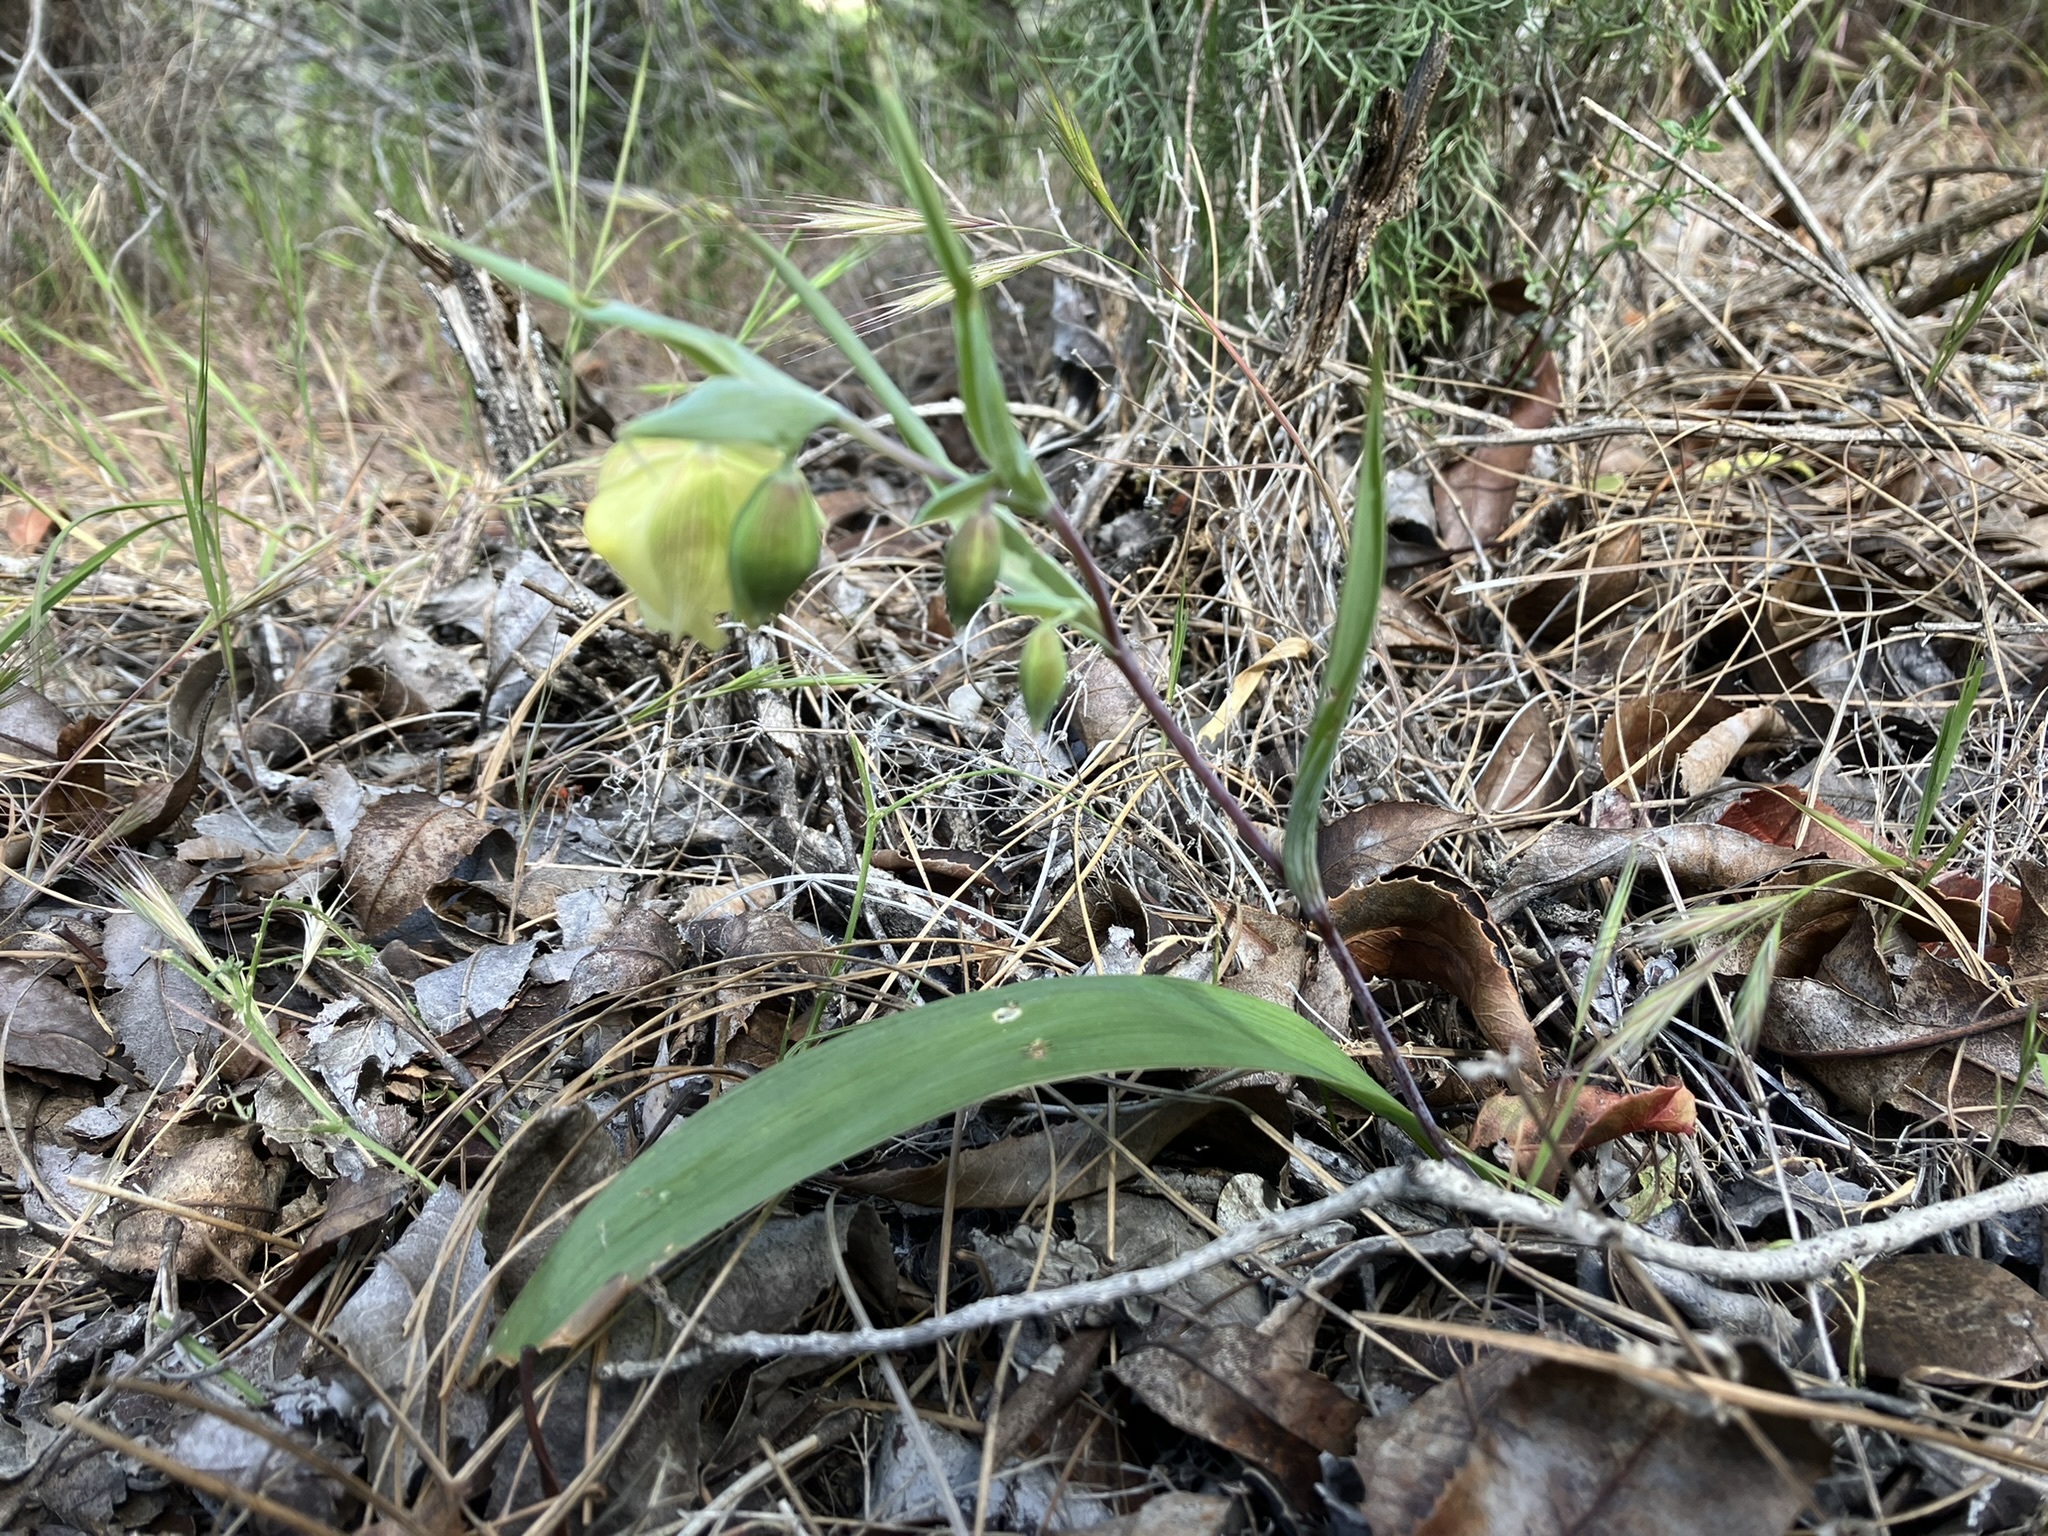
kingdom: Plantae
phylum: Tracheophyta
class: Liliopsida
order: Liliales
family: Liliaceae
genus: Calochortus
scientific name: Calochortus albus
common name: Fairy-lantern
